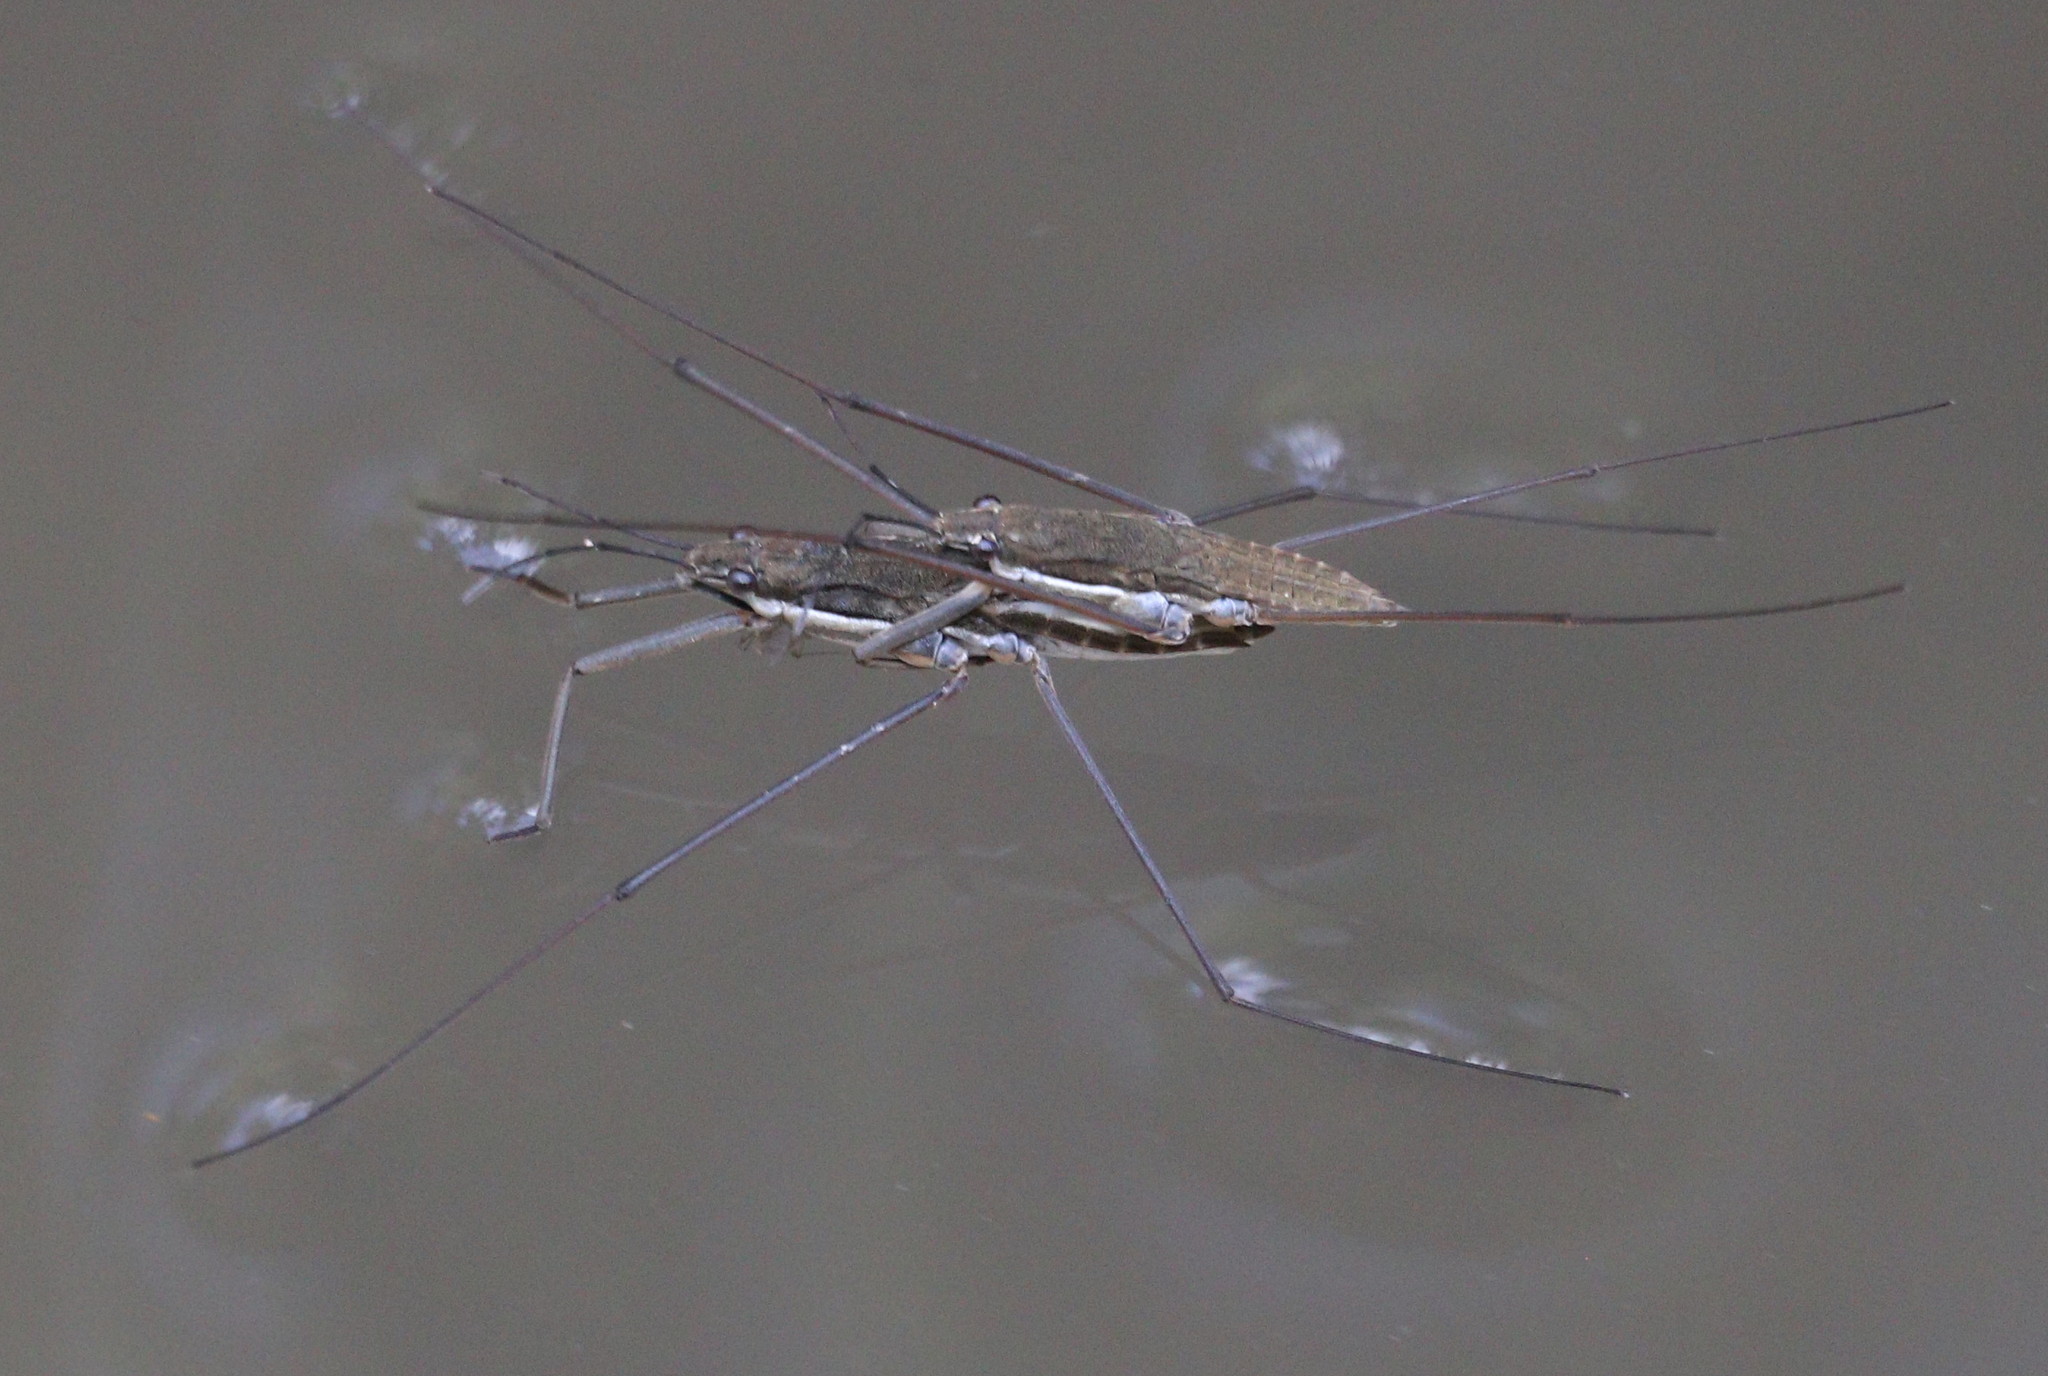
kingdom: Animalia
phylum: Arthropoda
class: Insecta
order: Hemiptera
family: Gerridae
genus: Aquarius
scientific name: Aquarius ventralis
